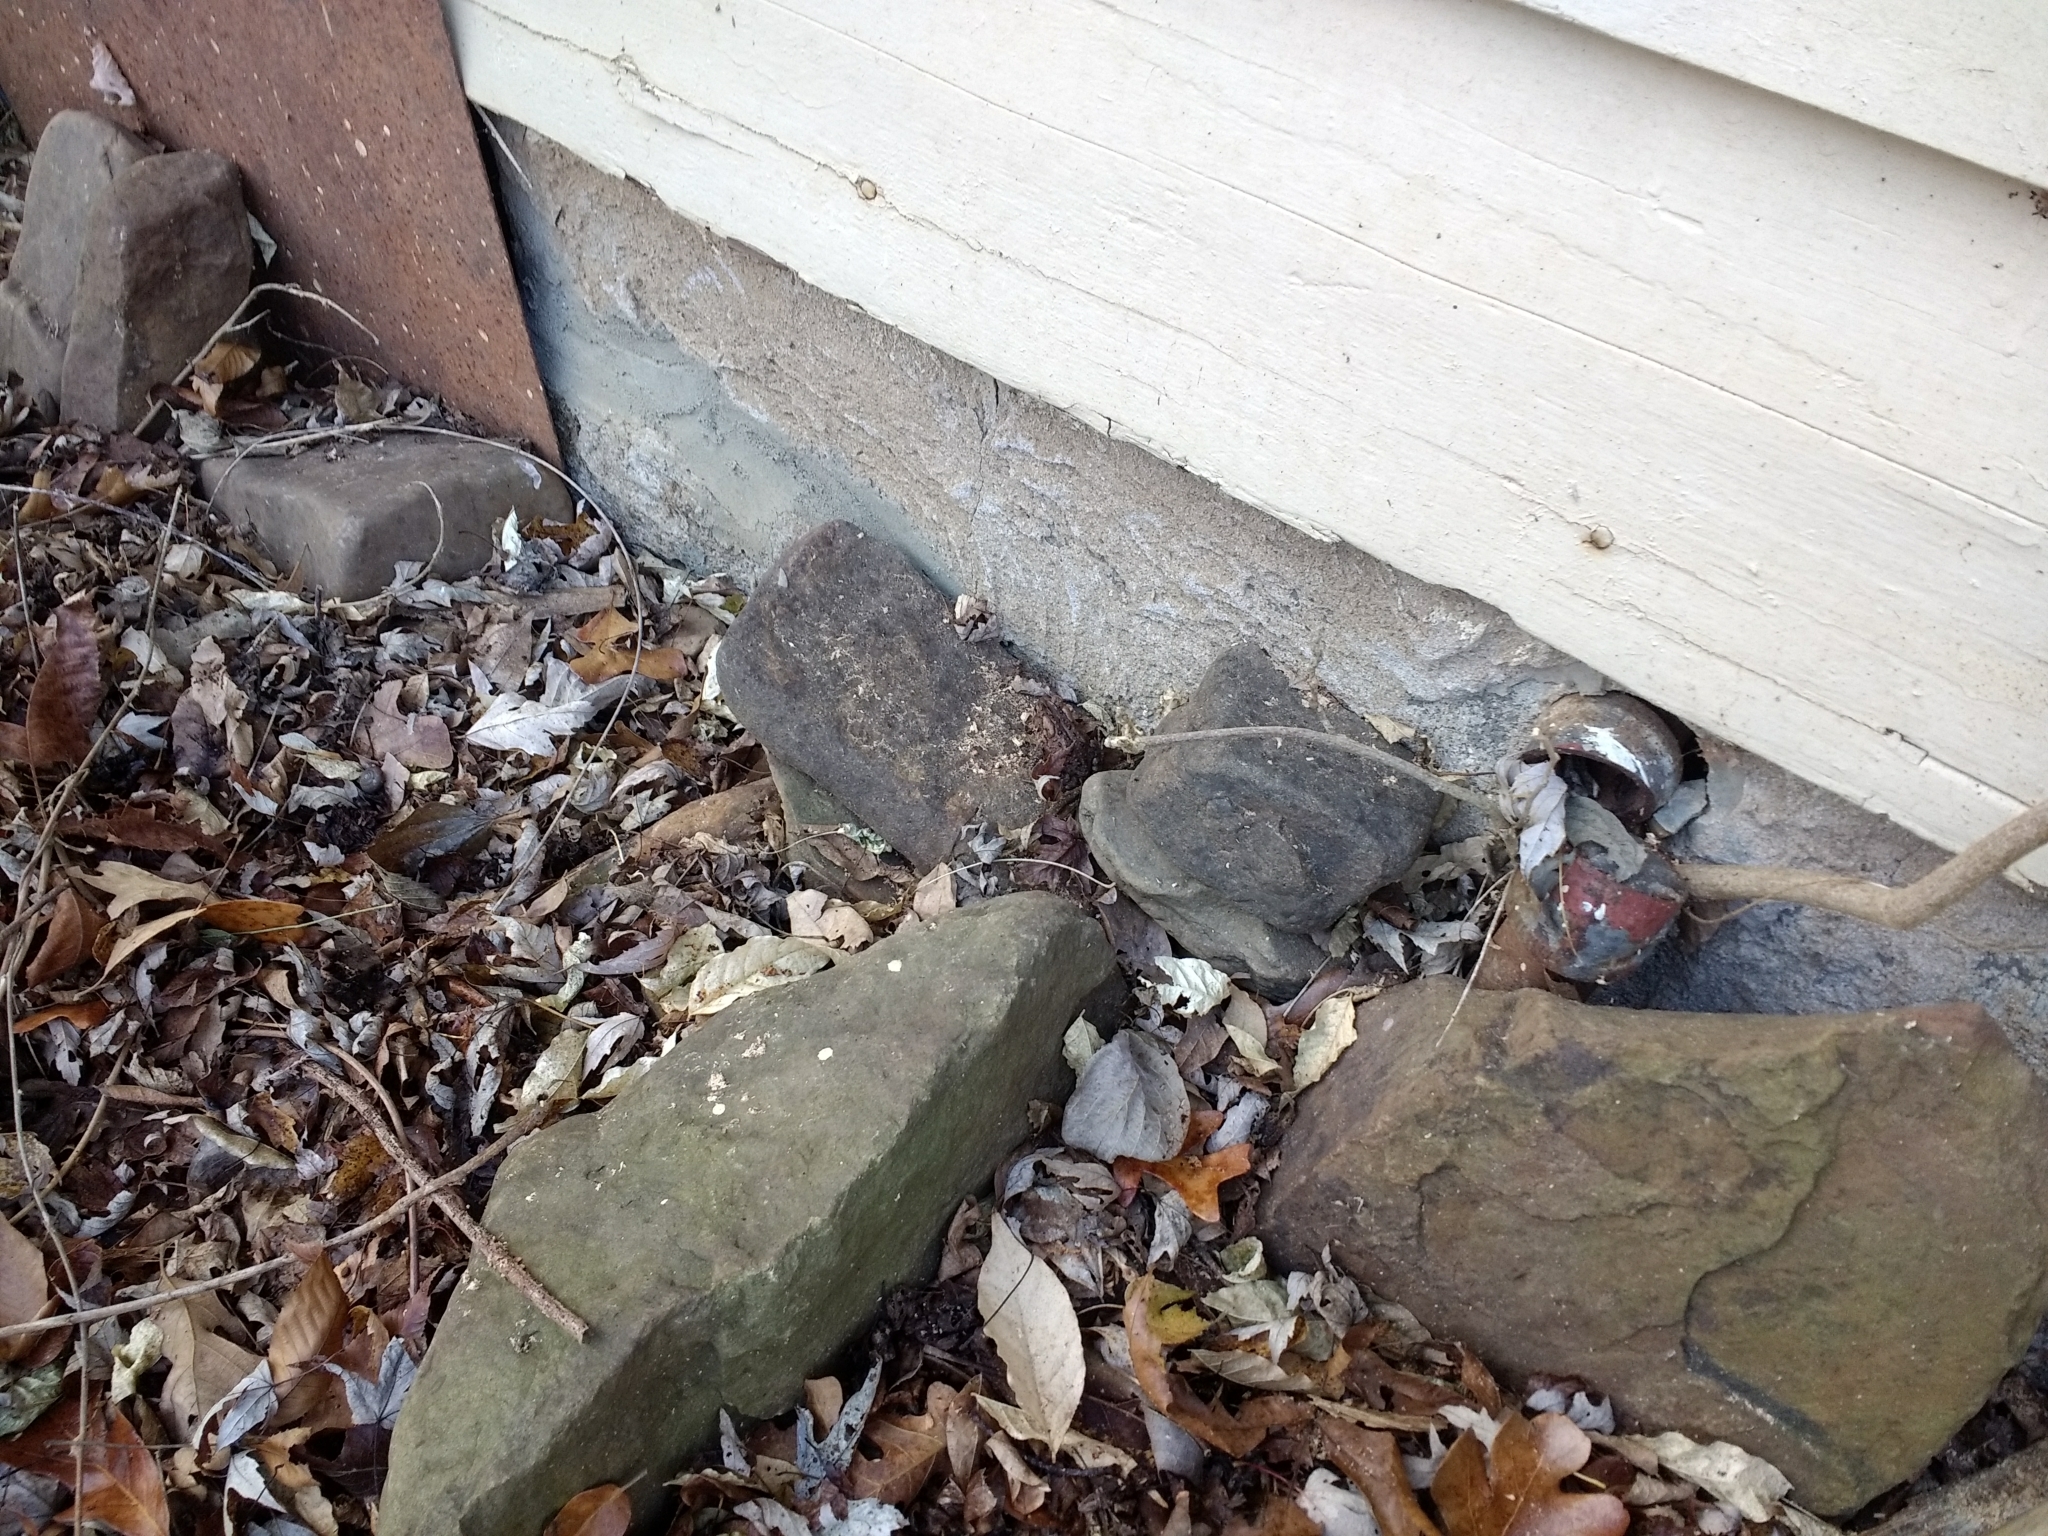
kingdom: Animalia
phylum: Chordata
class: Amphibia
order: Anura
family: Bufonidae
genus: Anaxyrus
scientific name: Anaxyrus americanus
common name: American toad
